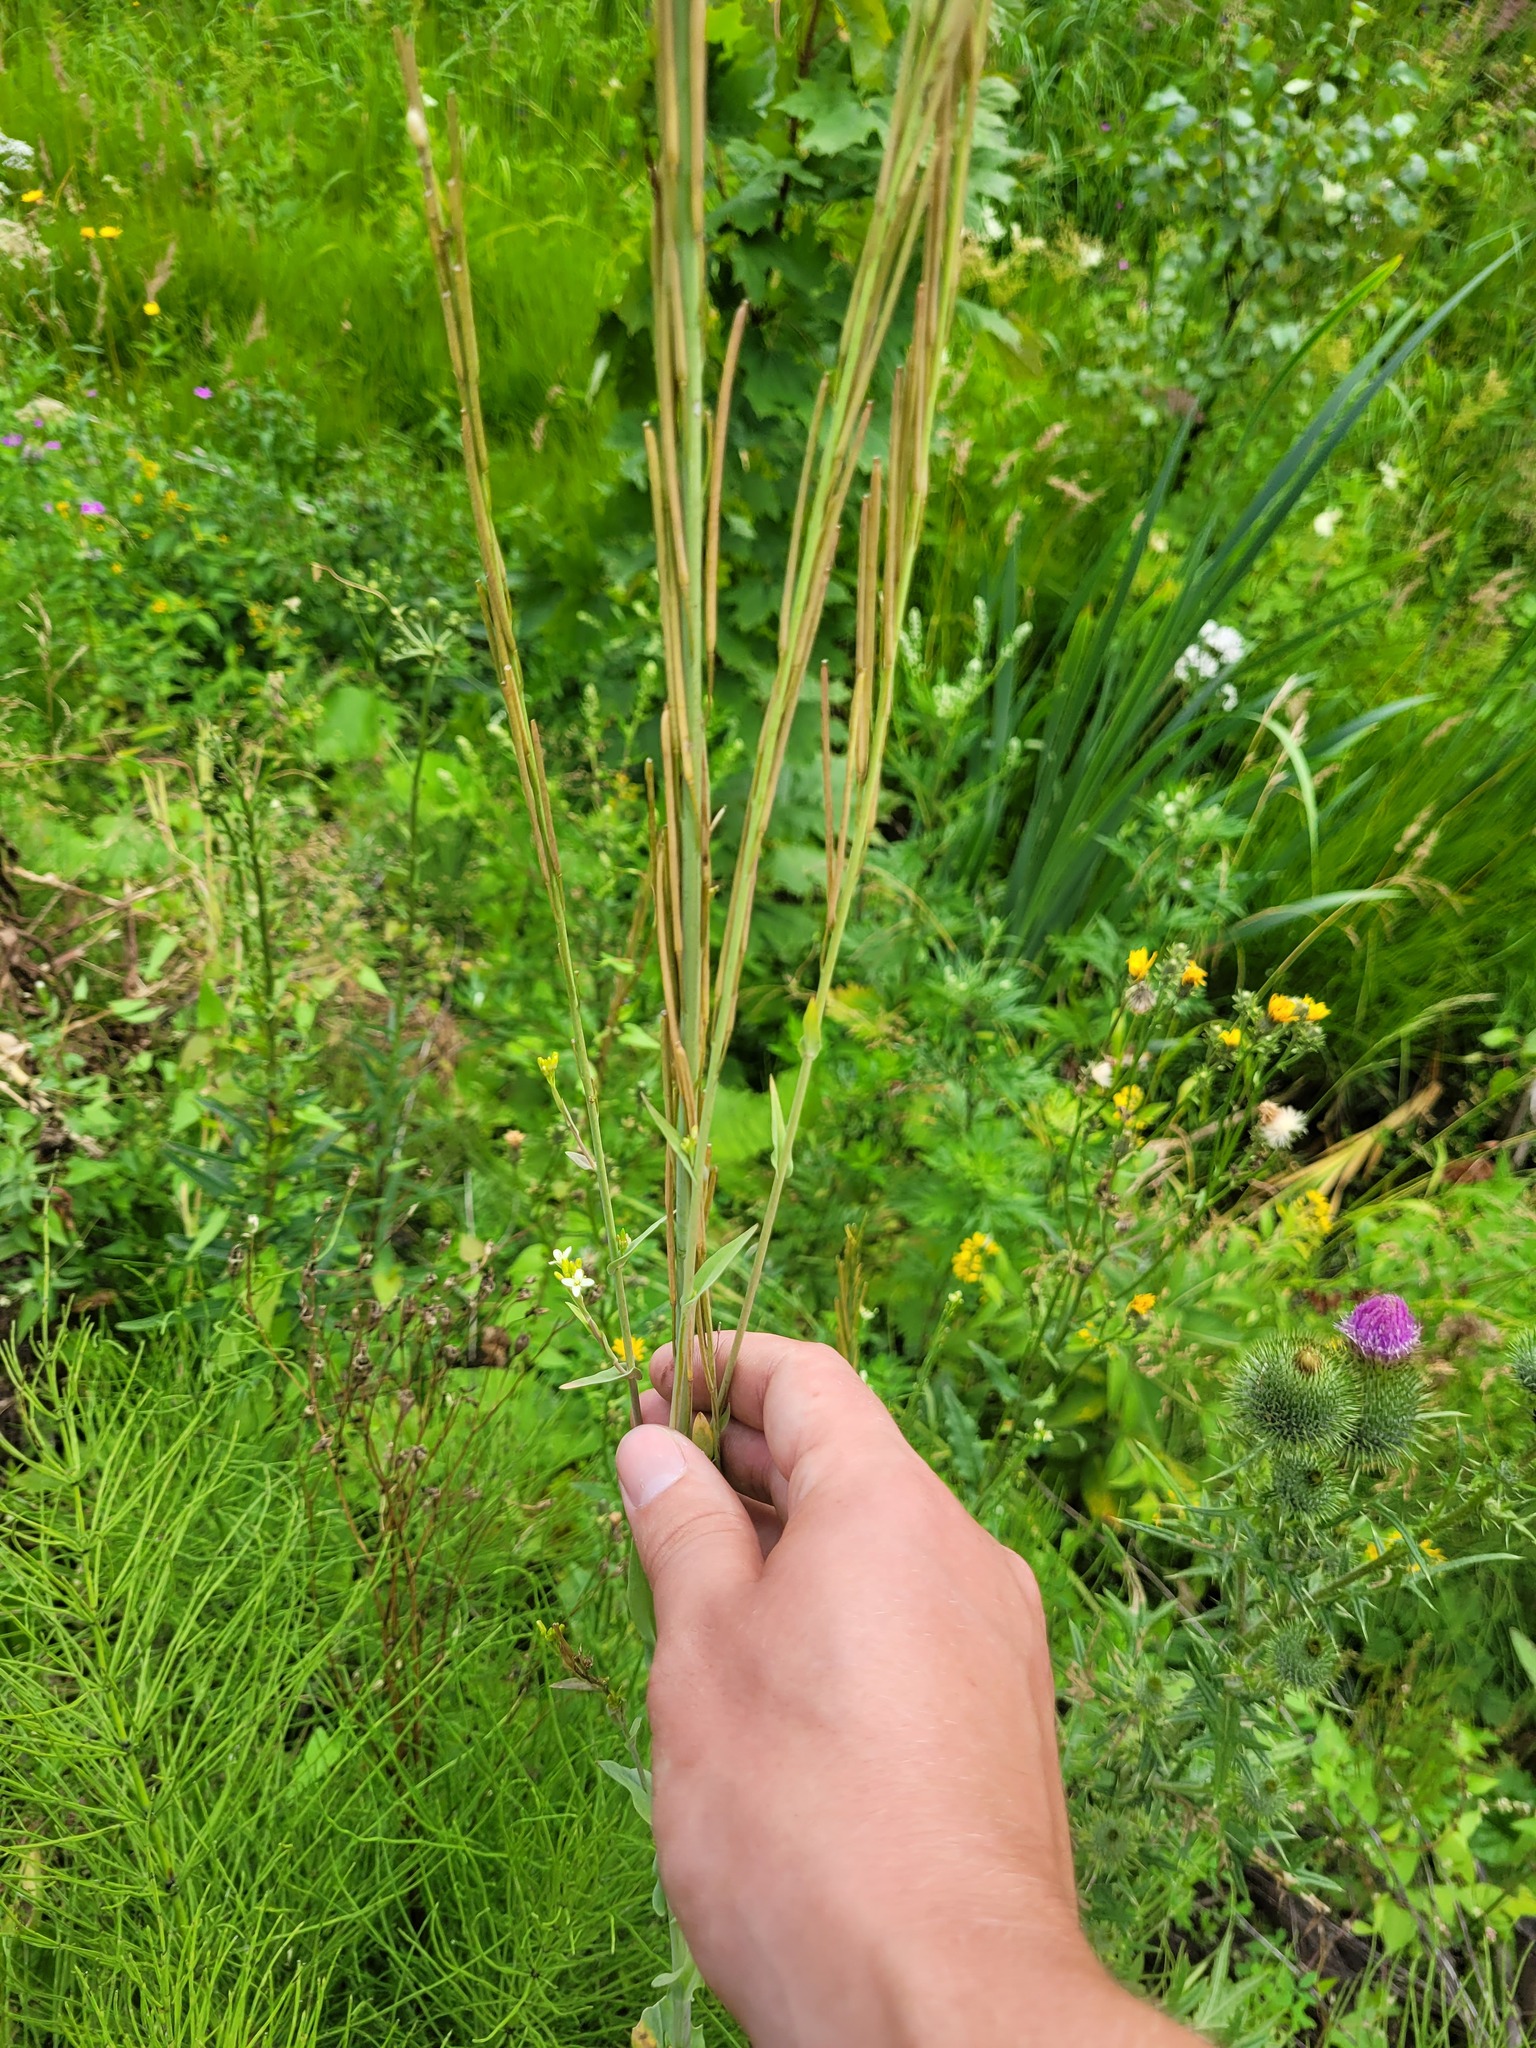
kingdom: Plantae
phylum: Tracheophyta
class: Magnoliopsida
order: Brassicales
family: Brassicaceae
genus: Turritis
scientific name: Turritis glabra
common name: Tower rockcress
